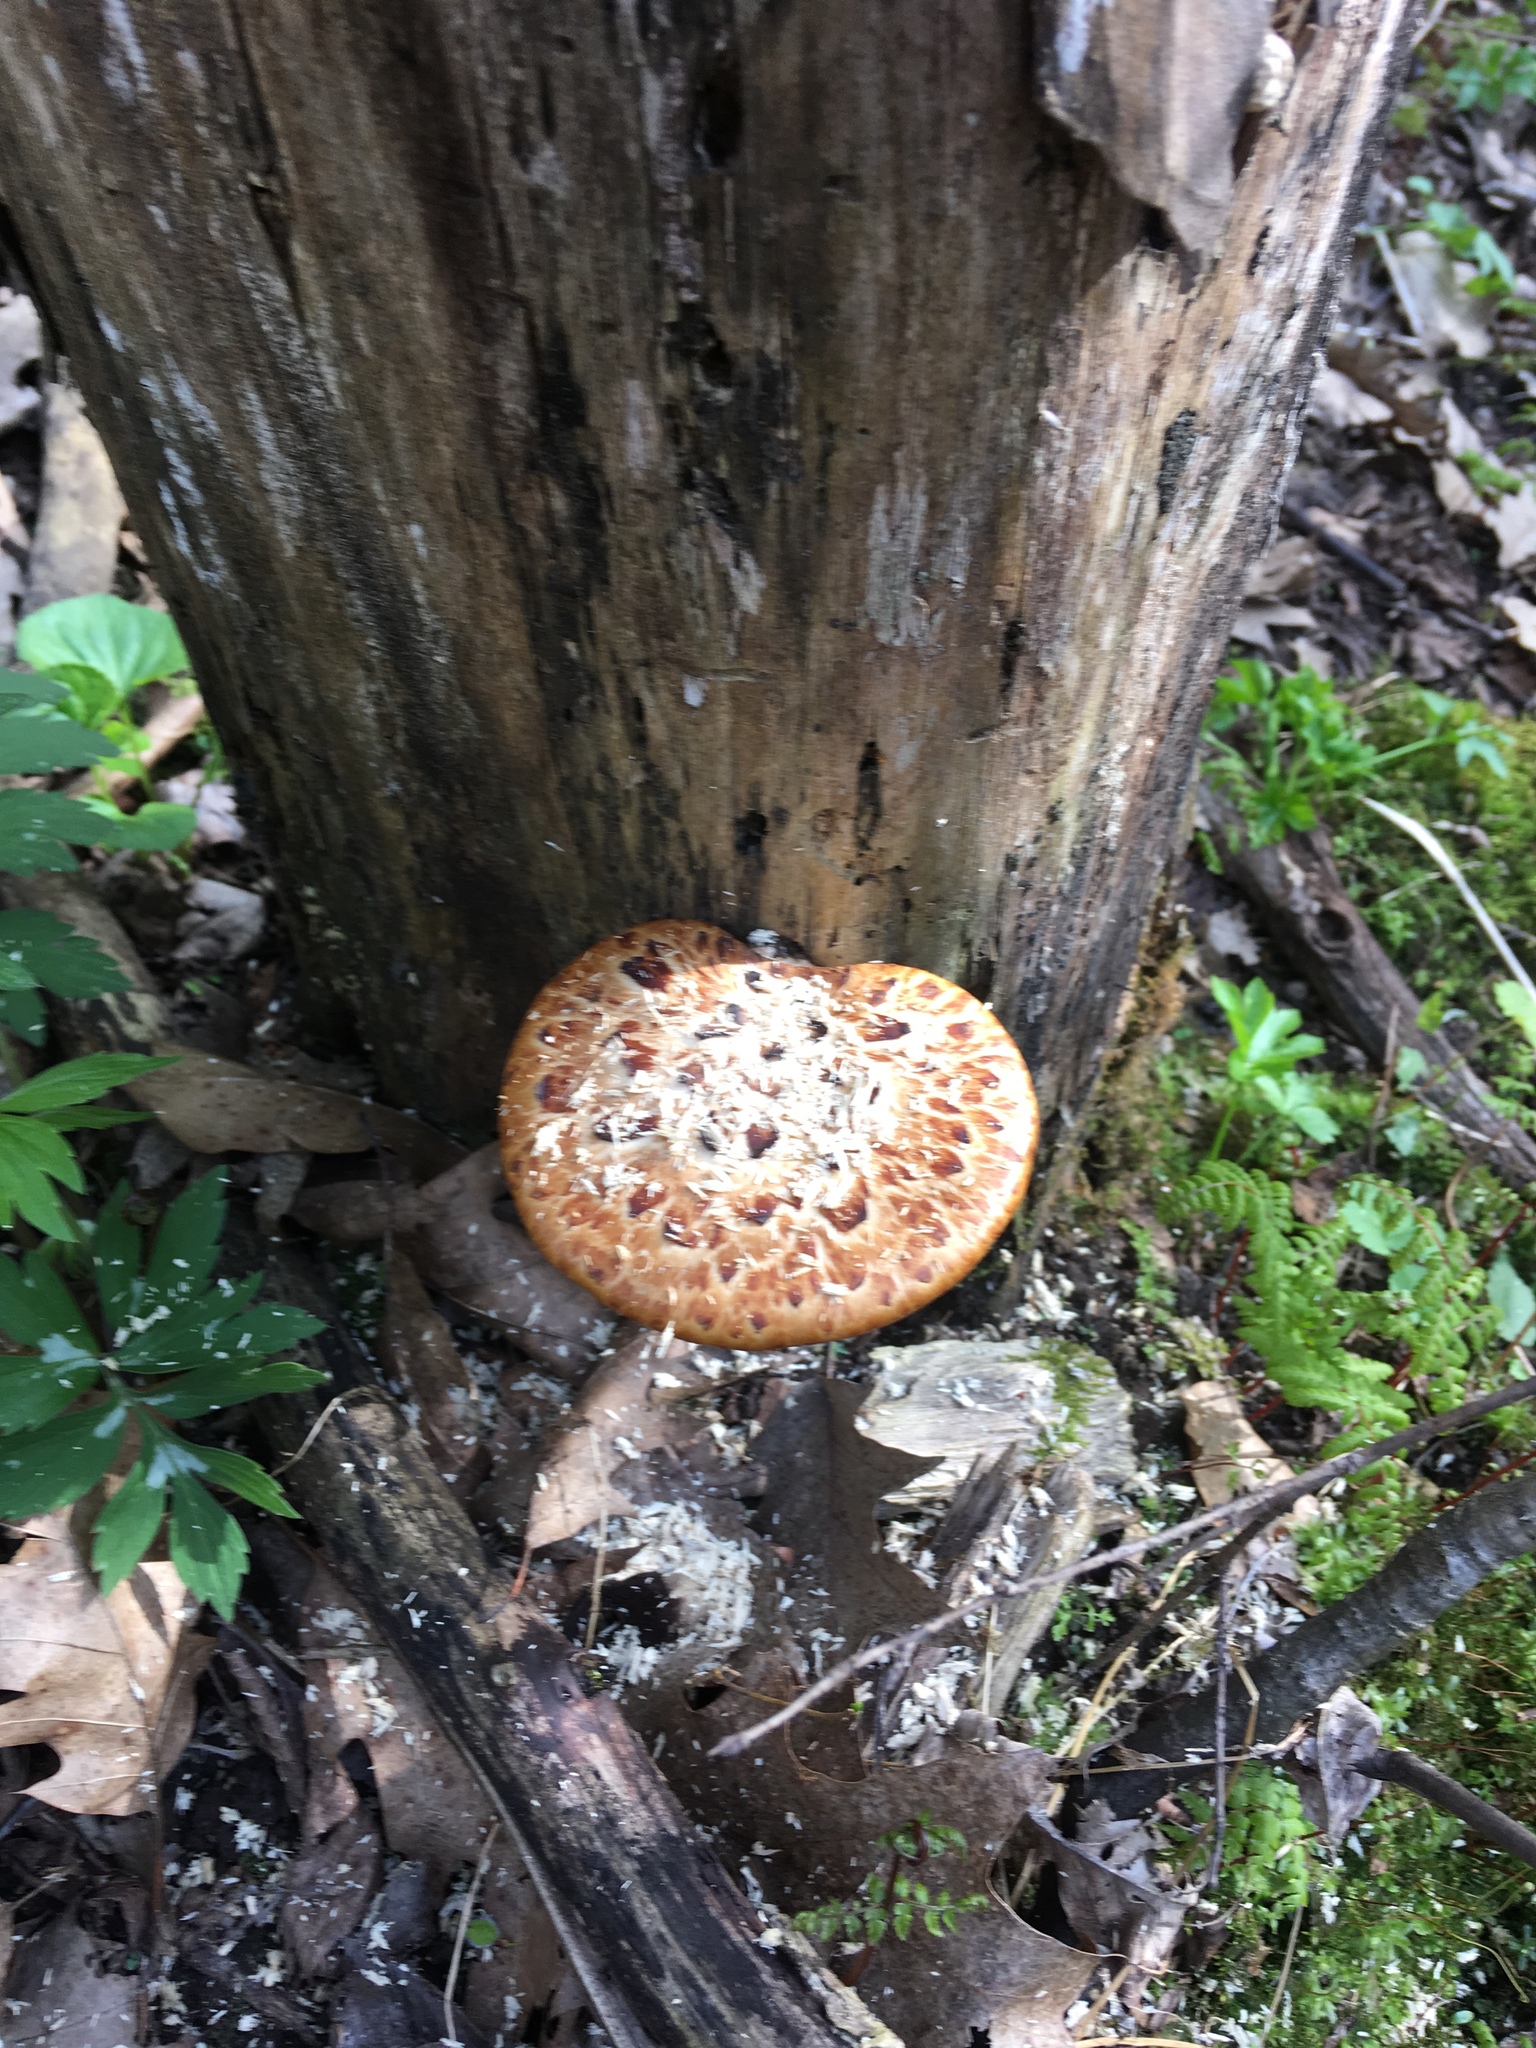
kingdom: Fungi
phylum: Basidiomycota
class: Agaricomycetes
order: Polyporales
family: Polyporaceae
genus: Cerioporus
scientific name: Cerioporus squamosus
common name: Dryad's saddle
